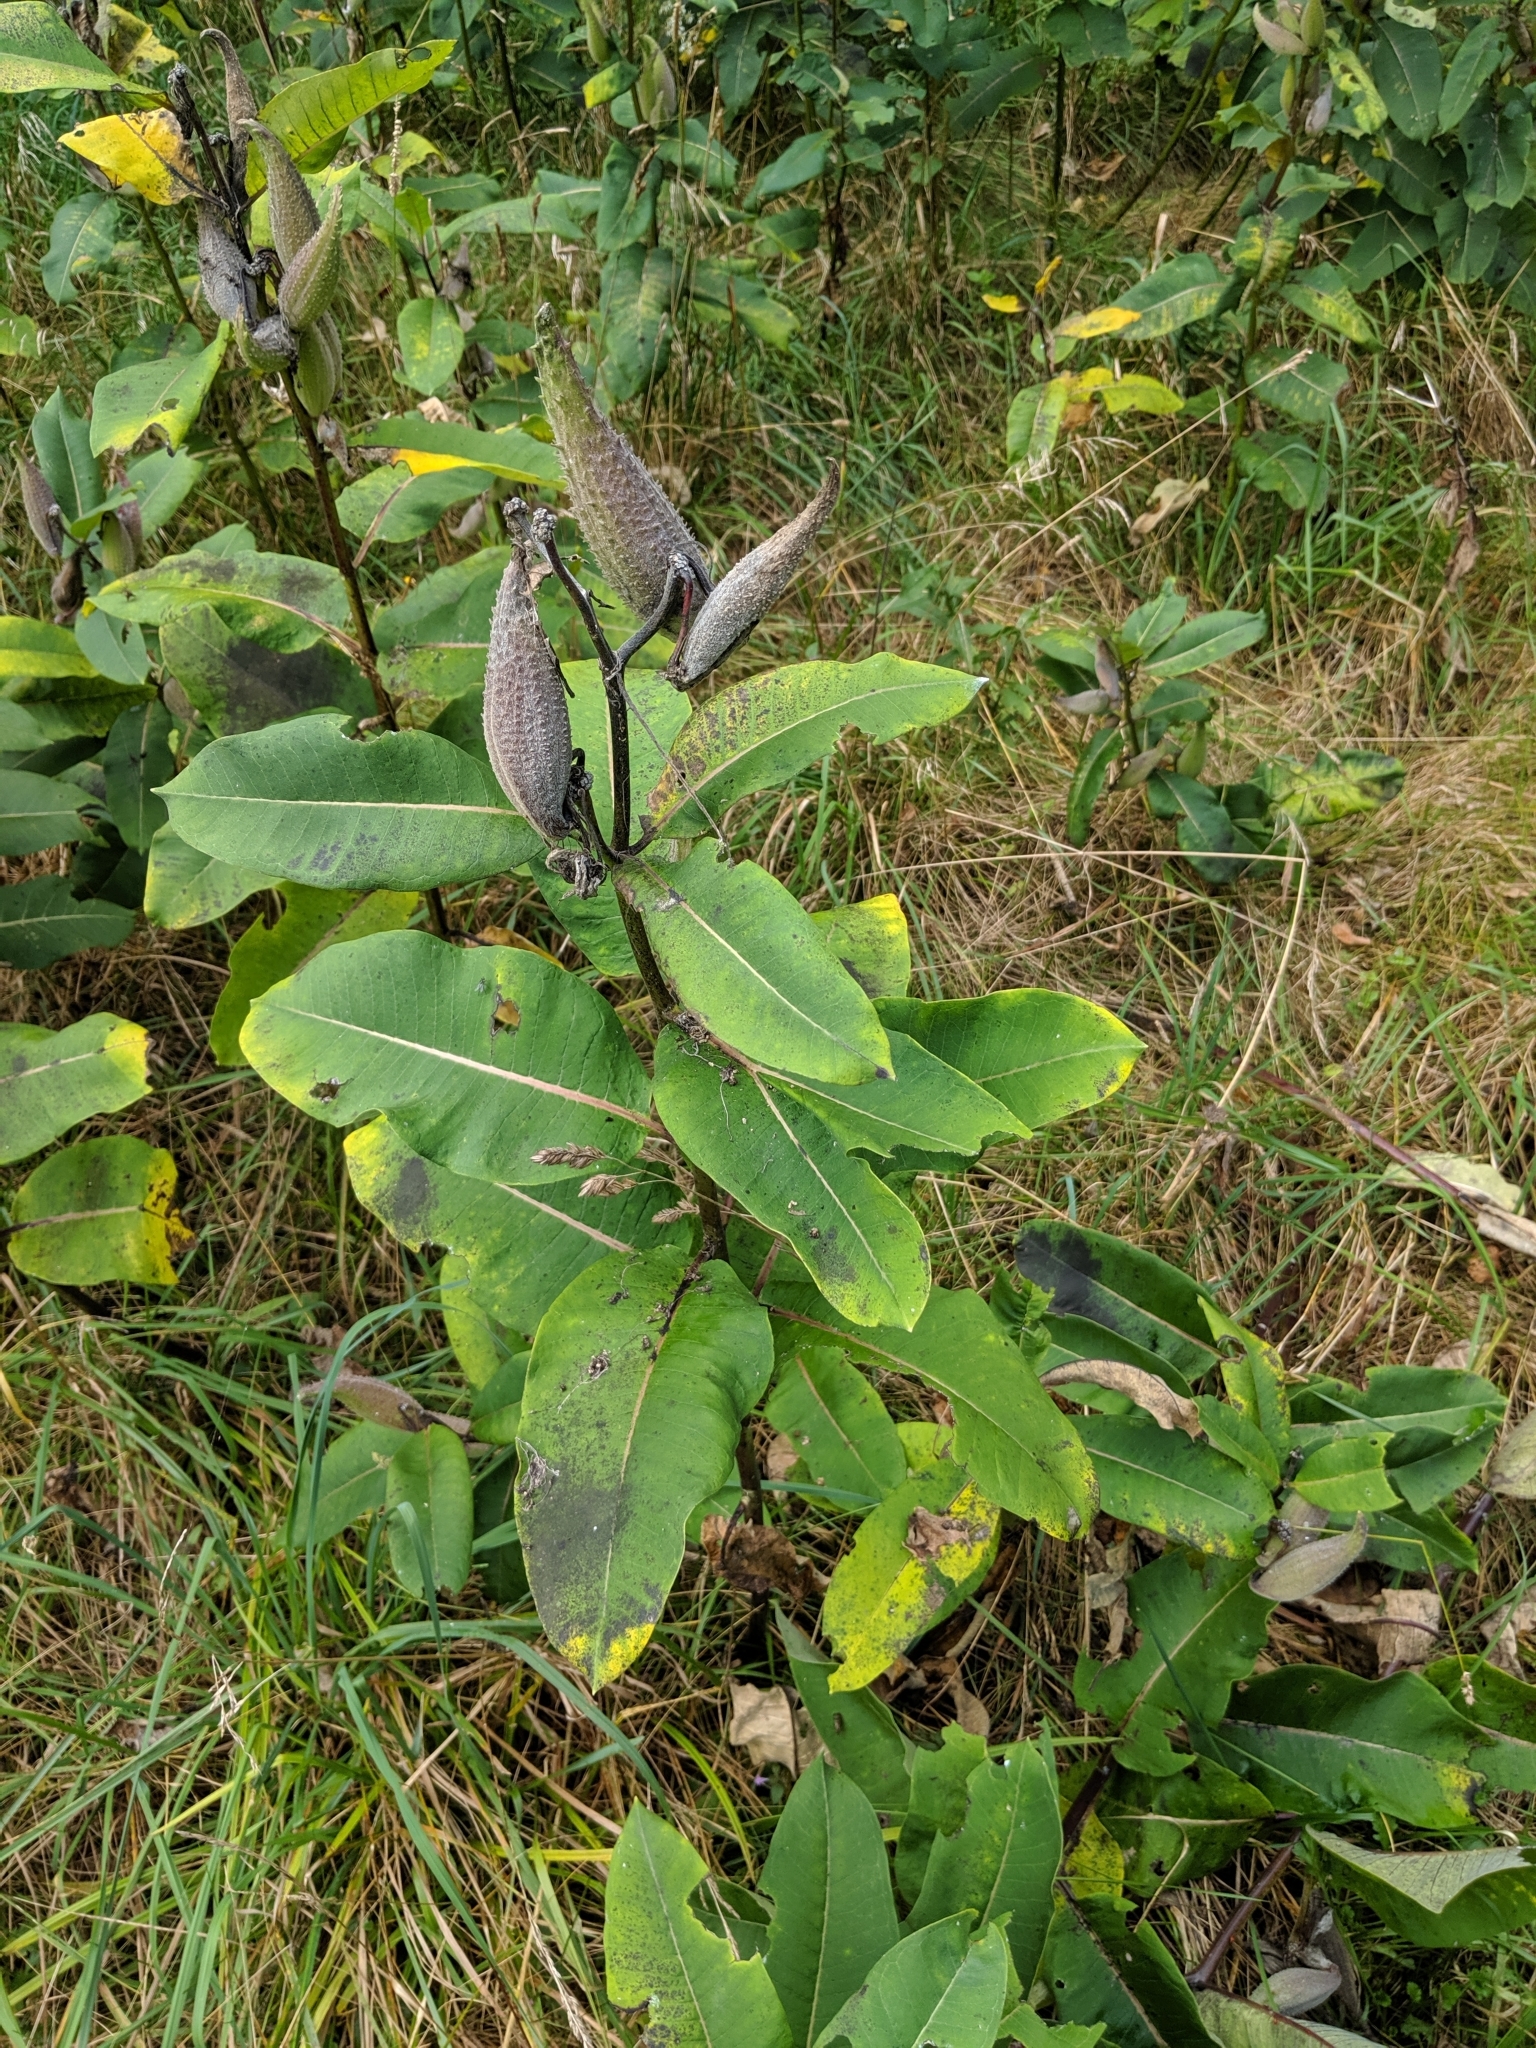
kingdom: Plantae
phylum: Tracheophyta
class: Magnoliopsida
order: Gentianales
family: Apocynaceae
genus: Asclepias
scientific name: Asclepias syriaca
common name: Common milkweed
